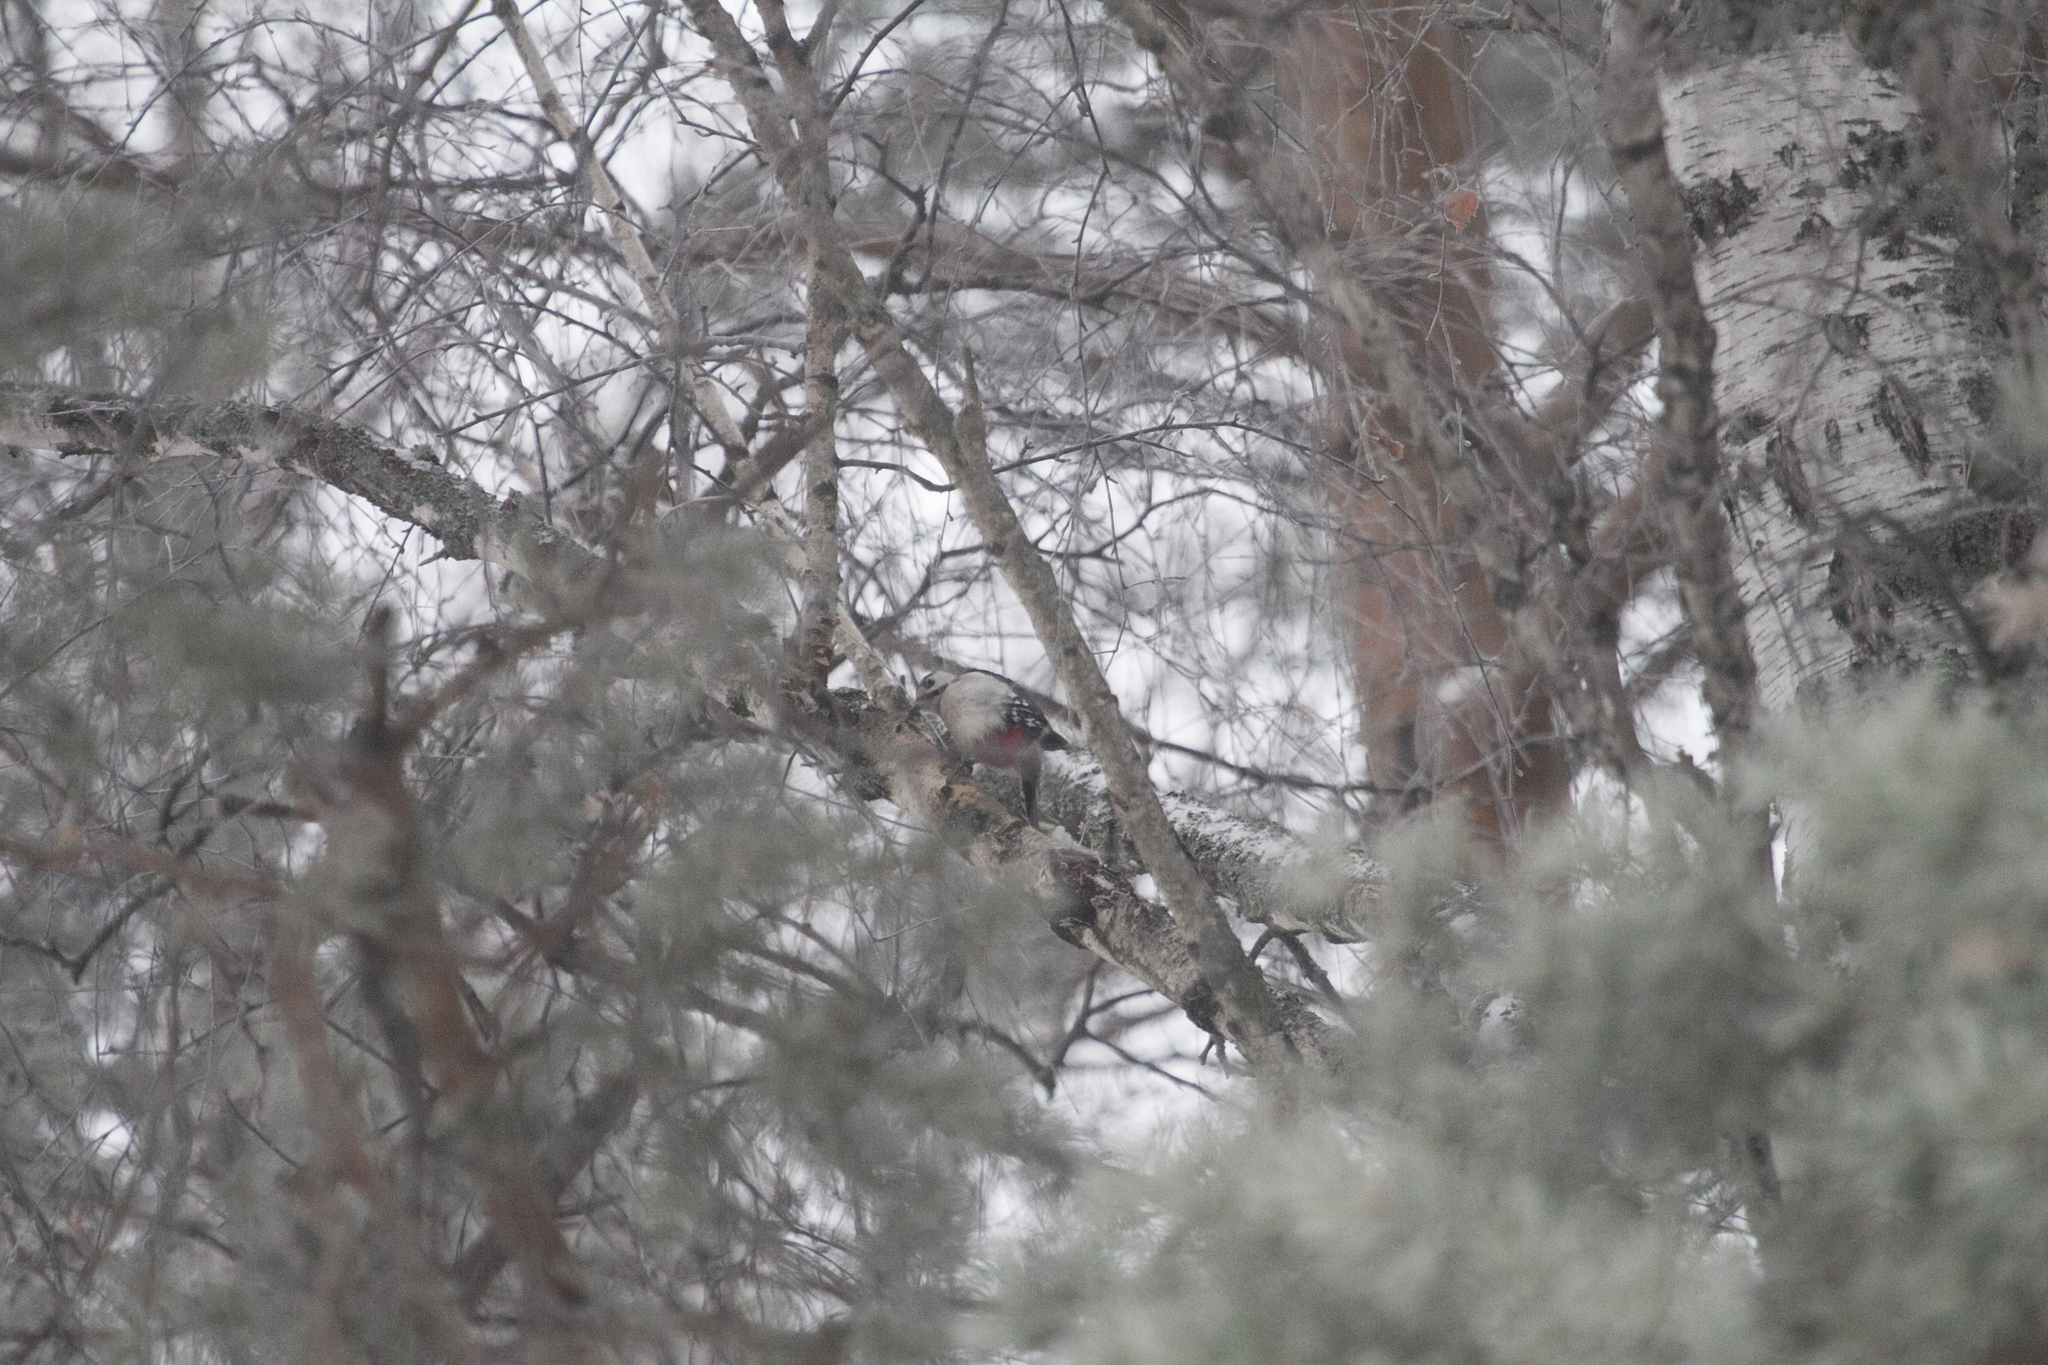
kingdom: Animalia
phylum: Chordata
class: Aves
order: Piciformes
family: Picidae
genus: Dendrocopos
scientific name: Dendrocopos major
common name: Great spotted woodpecker
